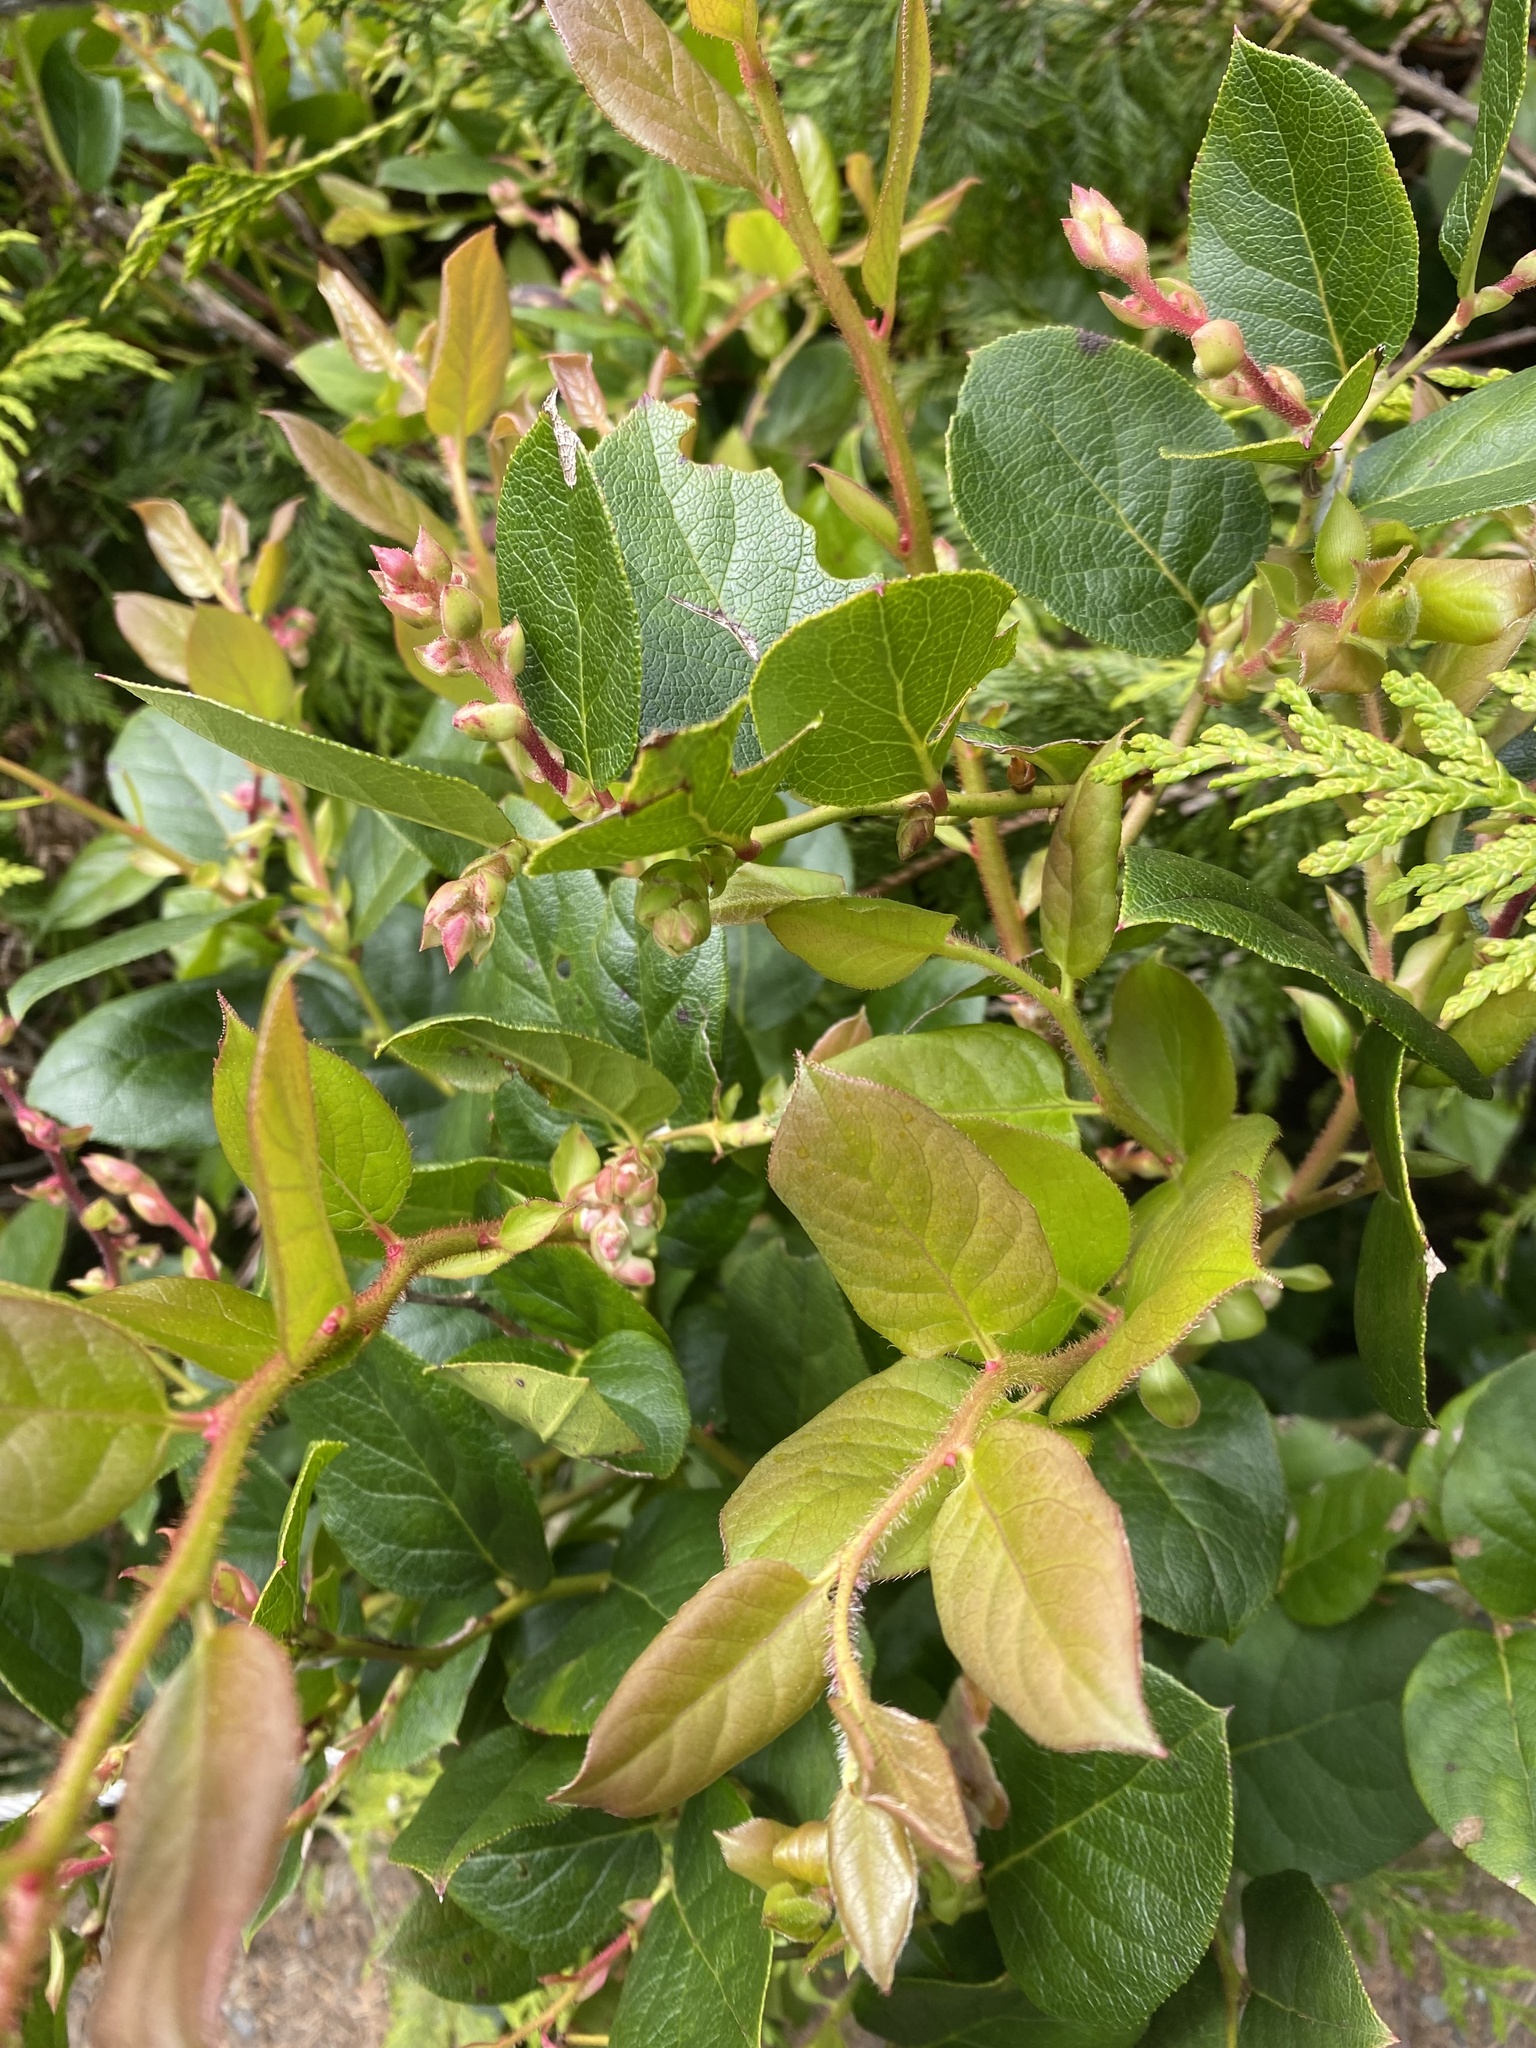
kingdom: Plantae
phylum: Tracheophyta
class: Magnoliopsida
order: Ericales
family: Ericaceae
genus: Gaultheria
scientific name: Gaultheria shallon
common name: Shallon
